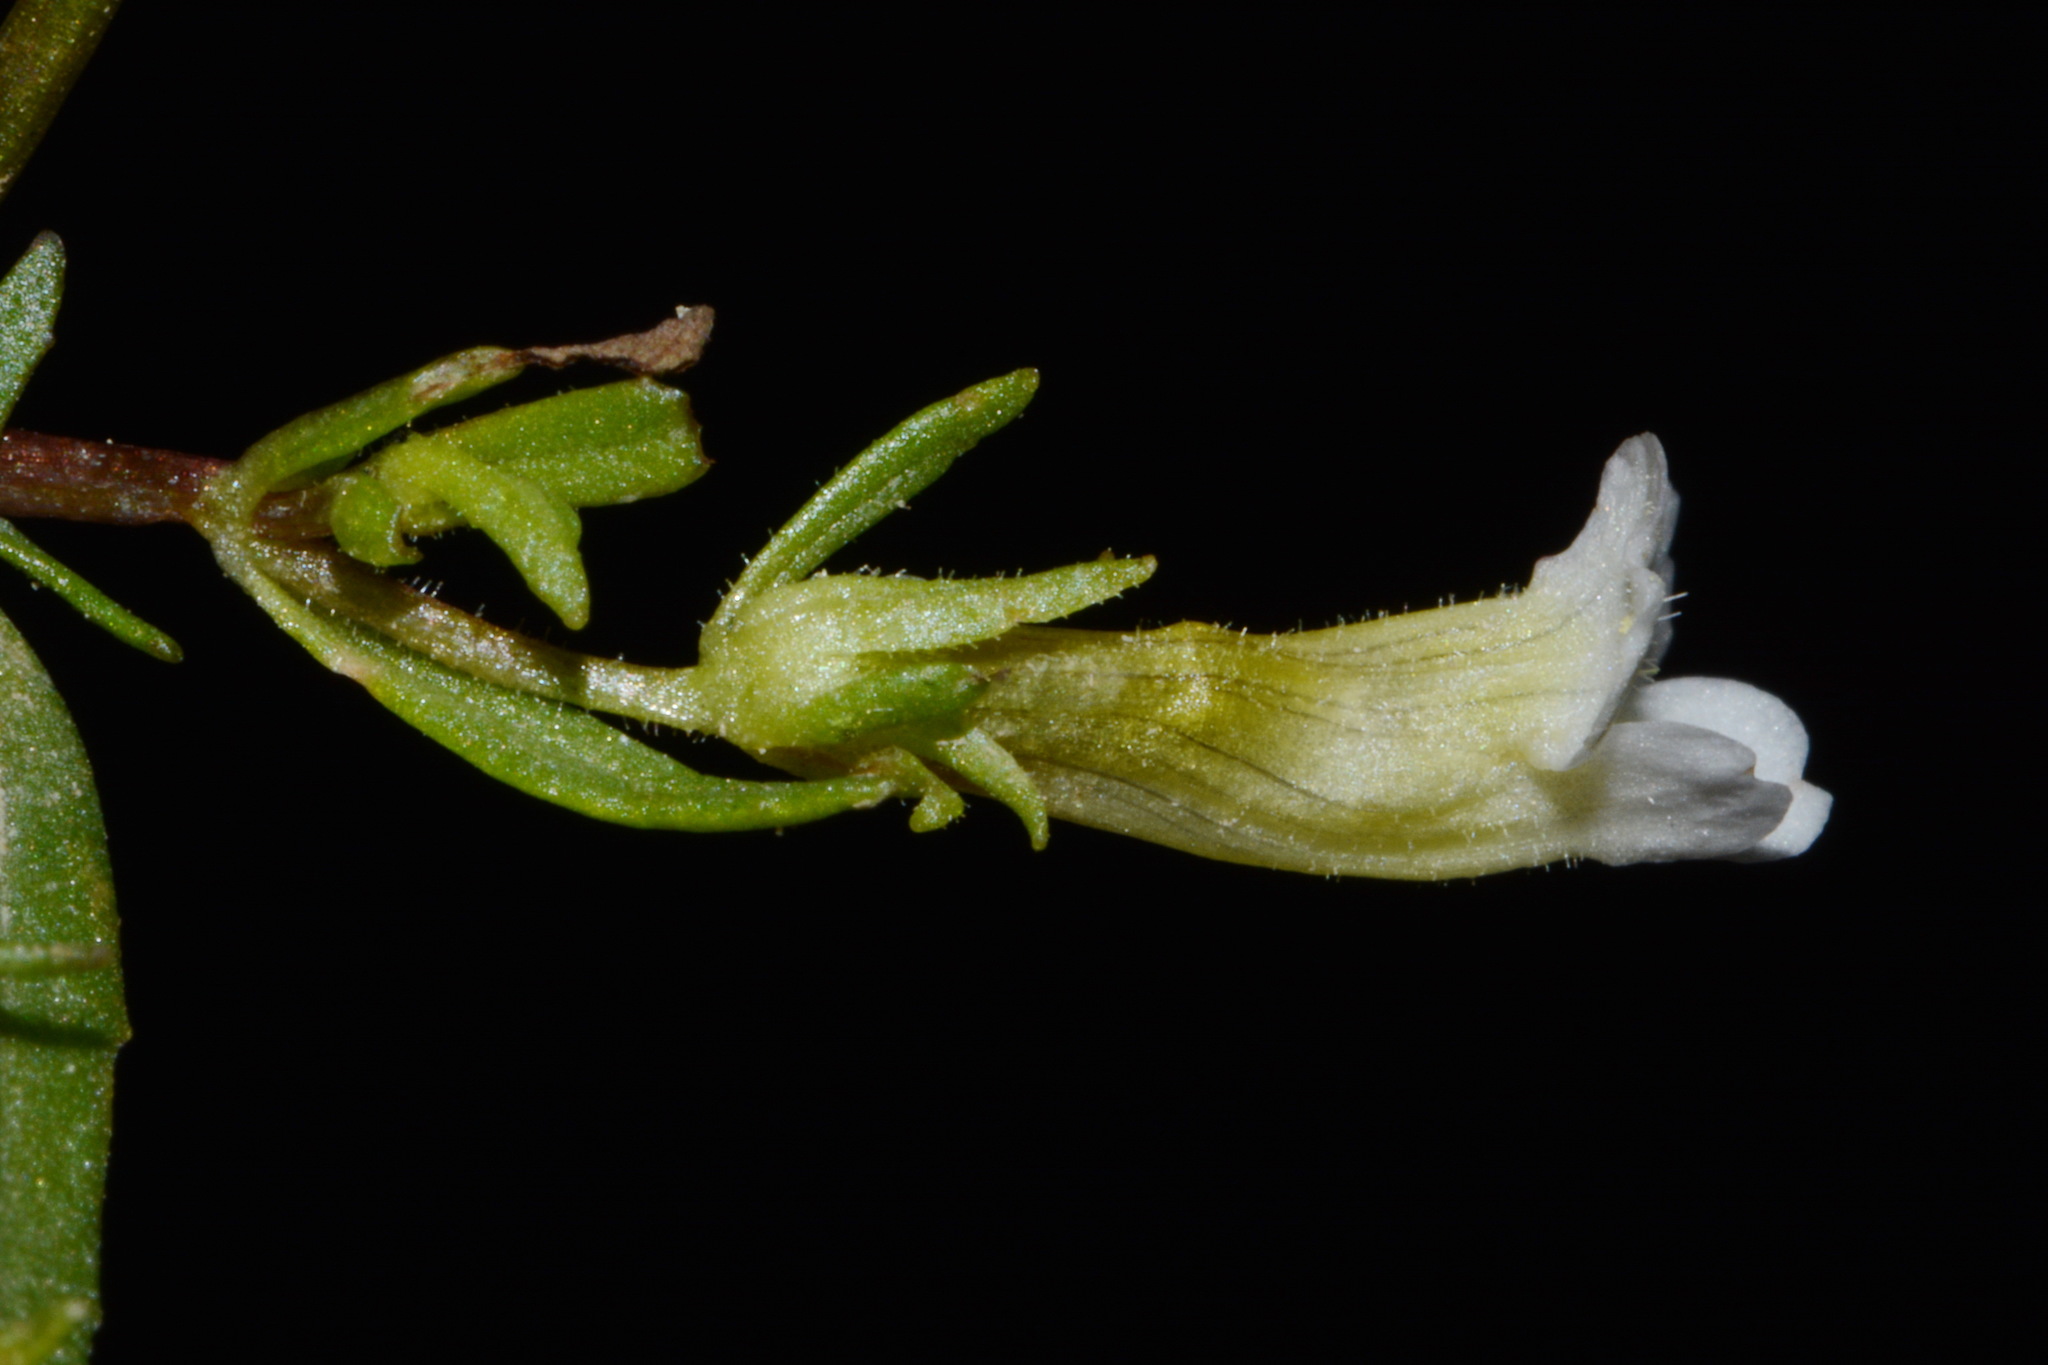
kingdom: Plantae
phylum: Tracheophyta
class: Magnoliopsida
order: Lamiales
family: Plantaginaceae
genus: Gratiola
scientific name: Gratiola quartermaniae
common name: Quarterman's hedge-hyssop
